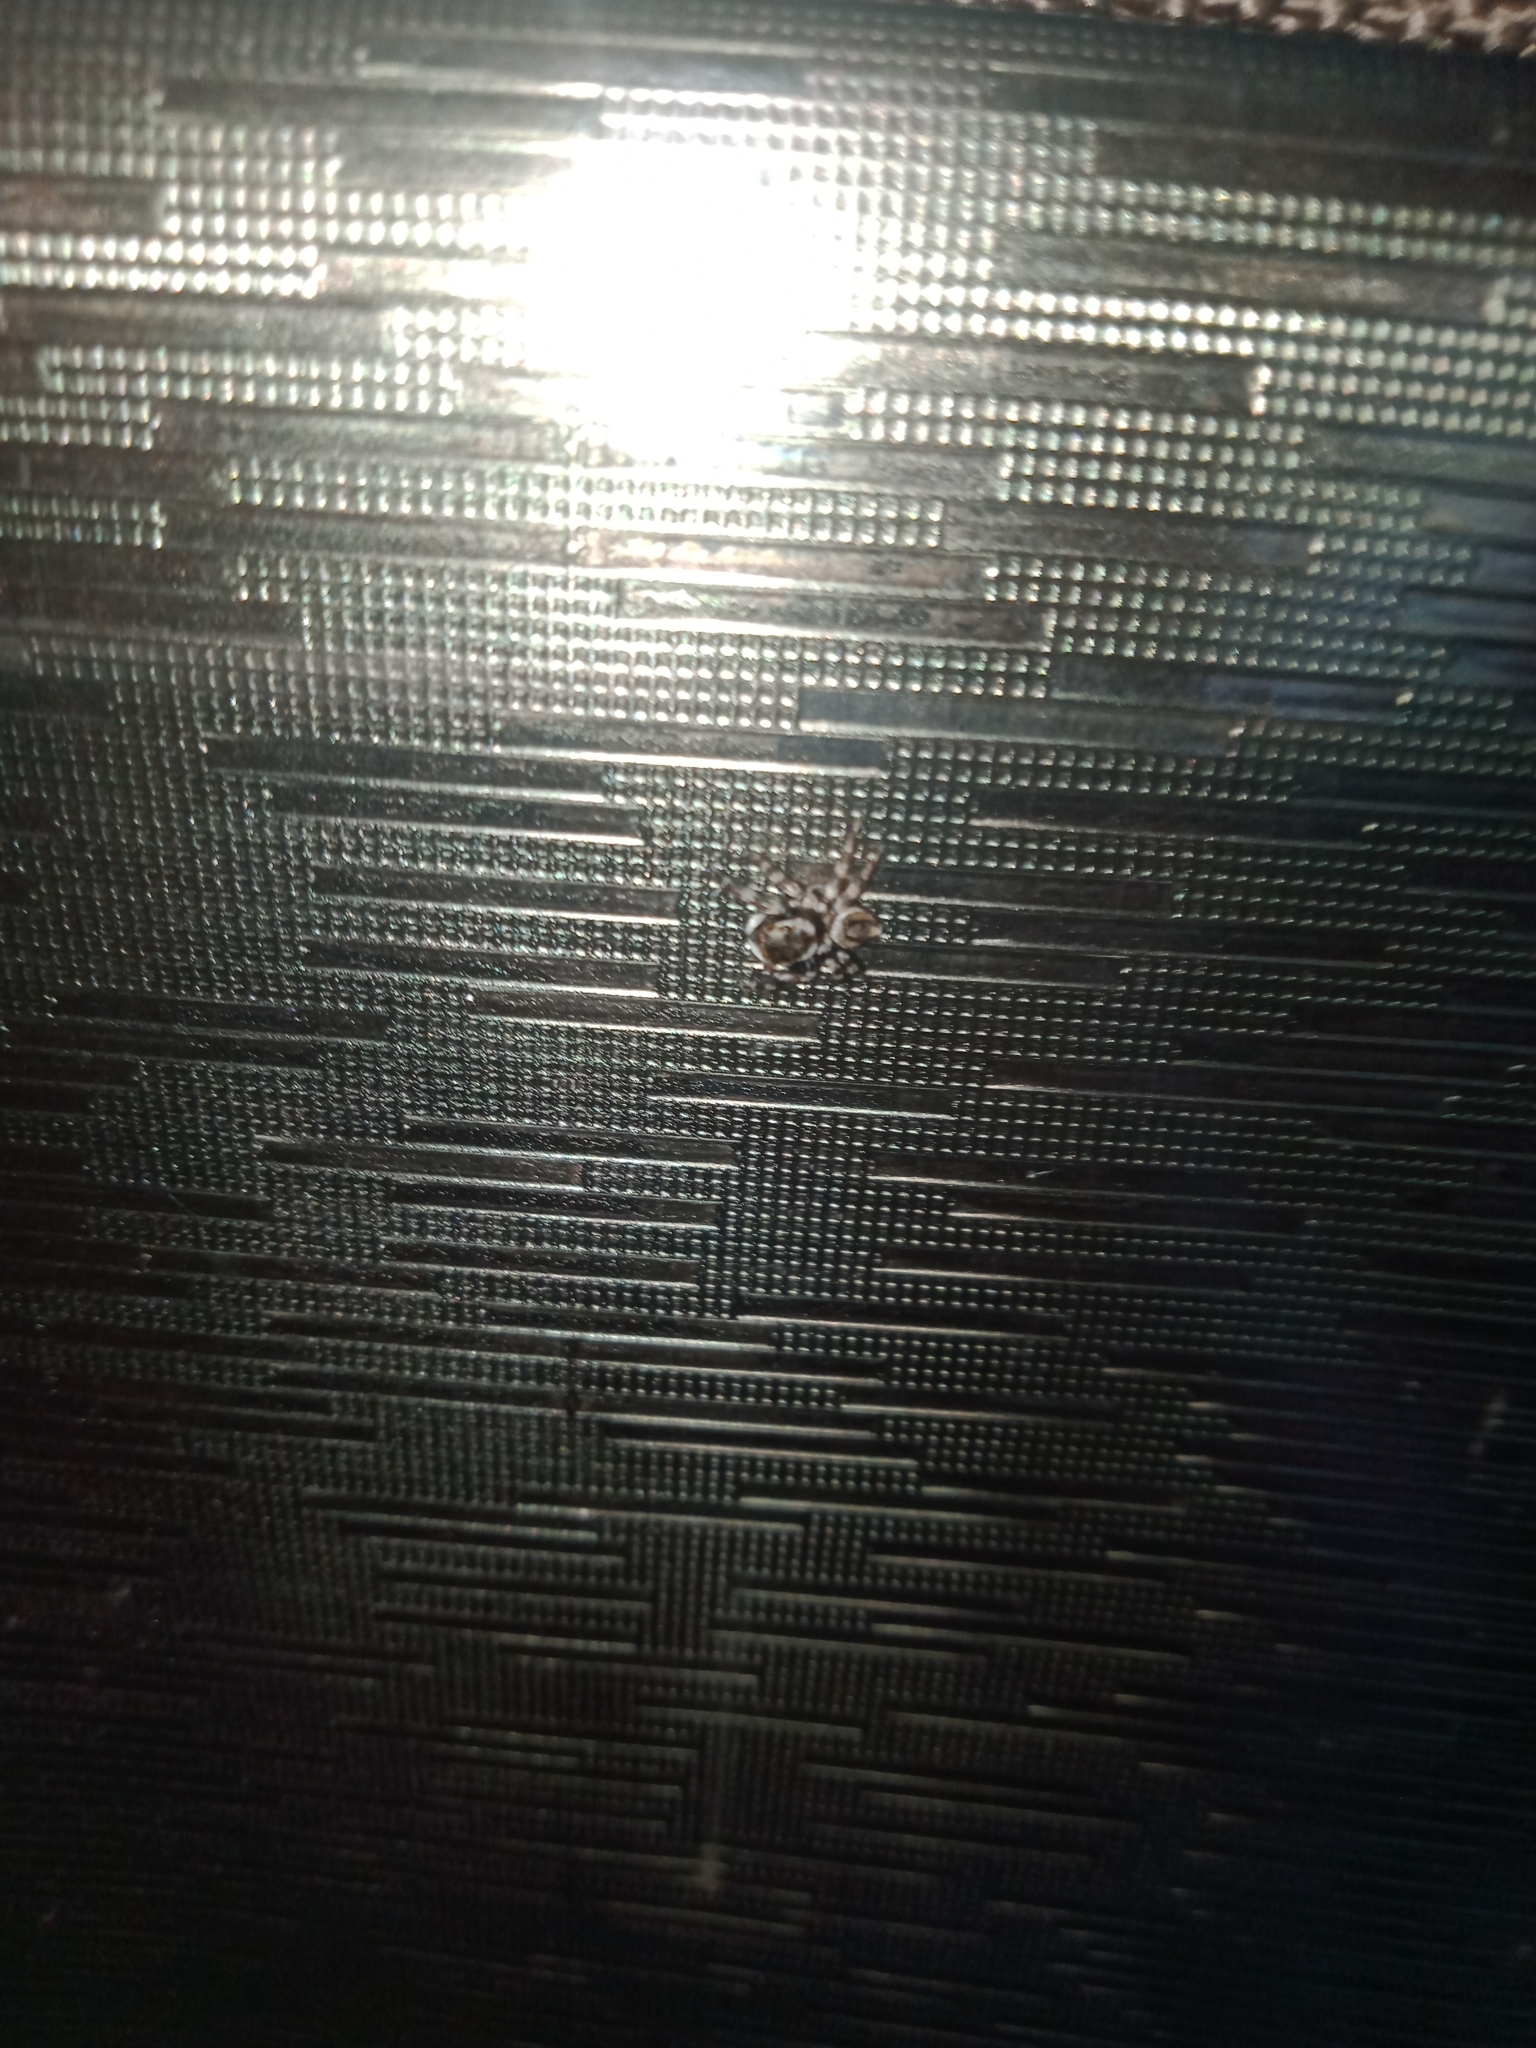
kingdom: Animalia
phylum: Arthropoda
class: Arachnida
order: Araneae
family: Salticidae
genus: Maratus
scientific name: Maratus scutulatus
